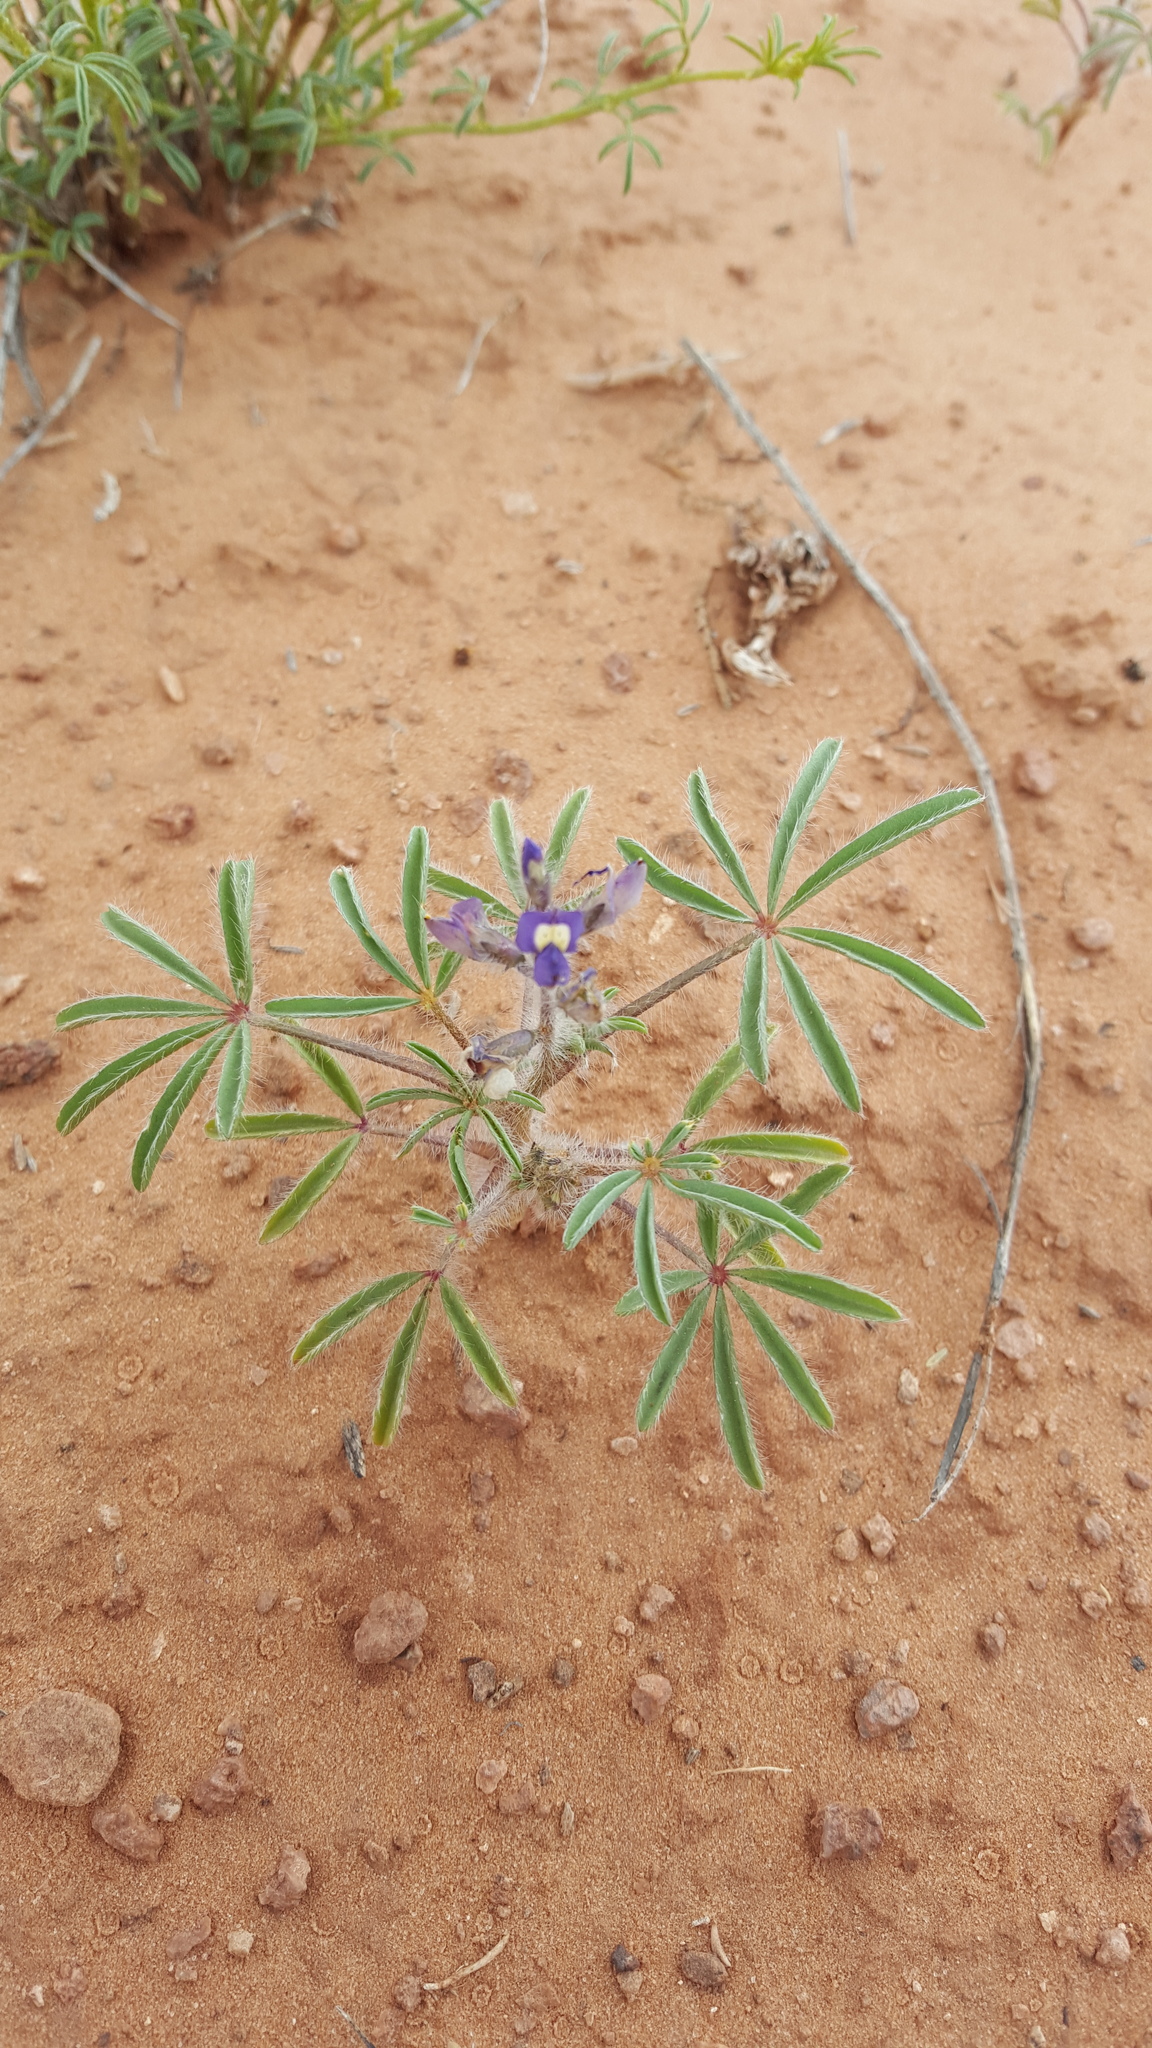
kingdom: Plantae
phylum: Tracheophyta
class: Magnoliopsida
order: Fabales
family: Fabaceae
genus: Lupinus
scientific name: Lupinus pusillus
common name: Low lupine
